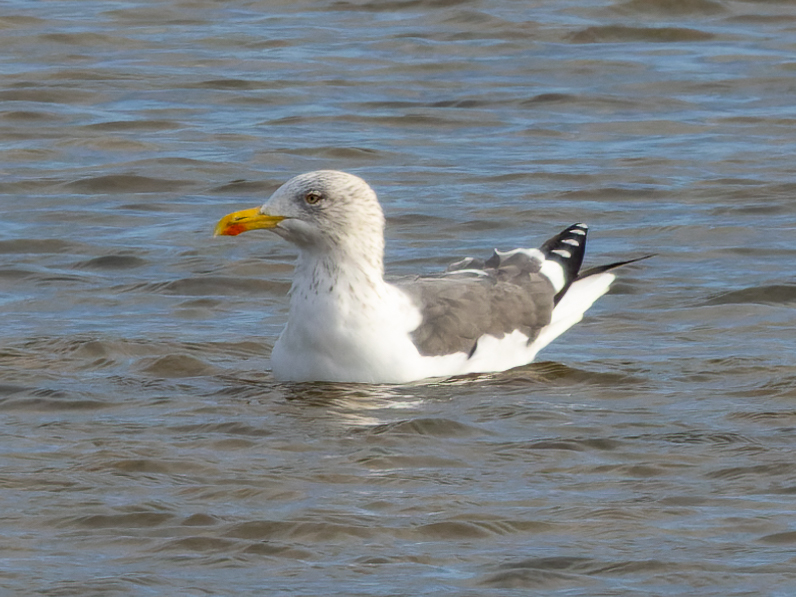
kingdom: Animalia
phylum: Chordata
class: Aves
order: Charadriiformes
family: Laridae
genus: Larus
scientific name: Larus fuscus
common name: Lesser black-backed gull
